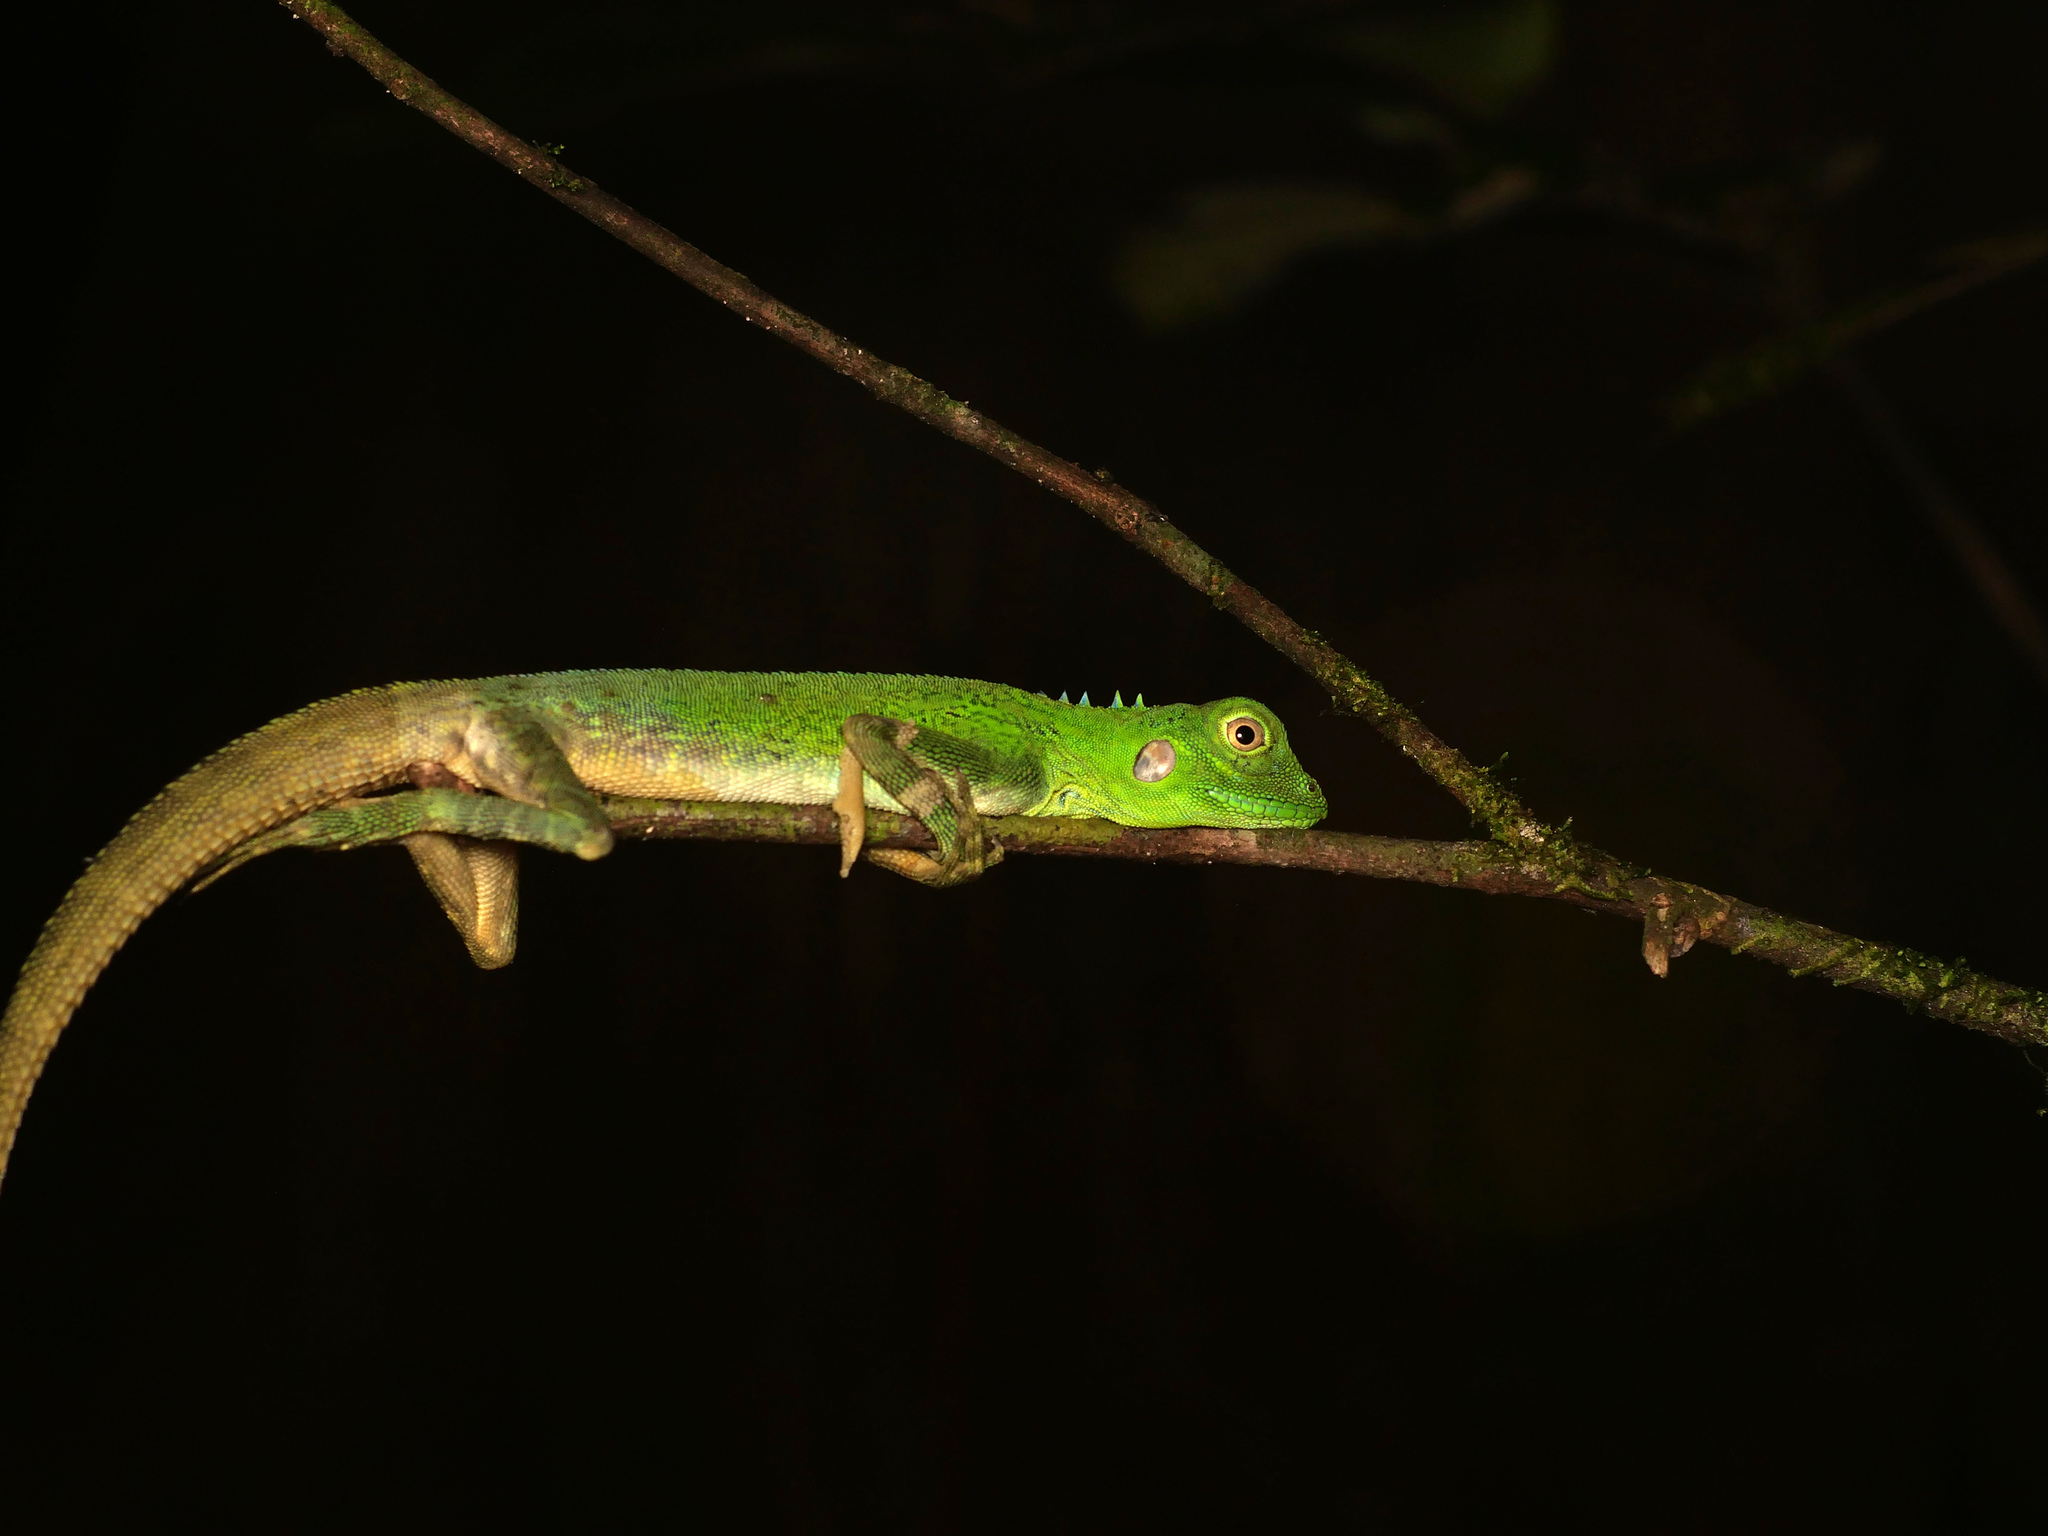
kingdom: Animalia
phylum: Chordata
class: Squamata
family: Agamidae
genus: Hypsilurus
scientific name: Hypsilurus modestus
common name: Modest forest dragon
